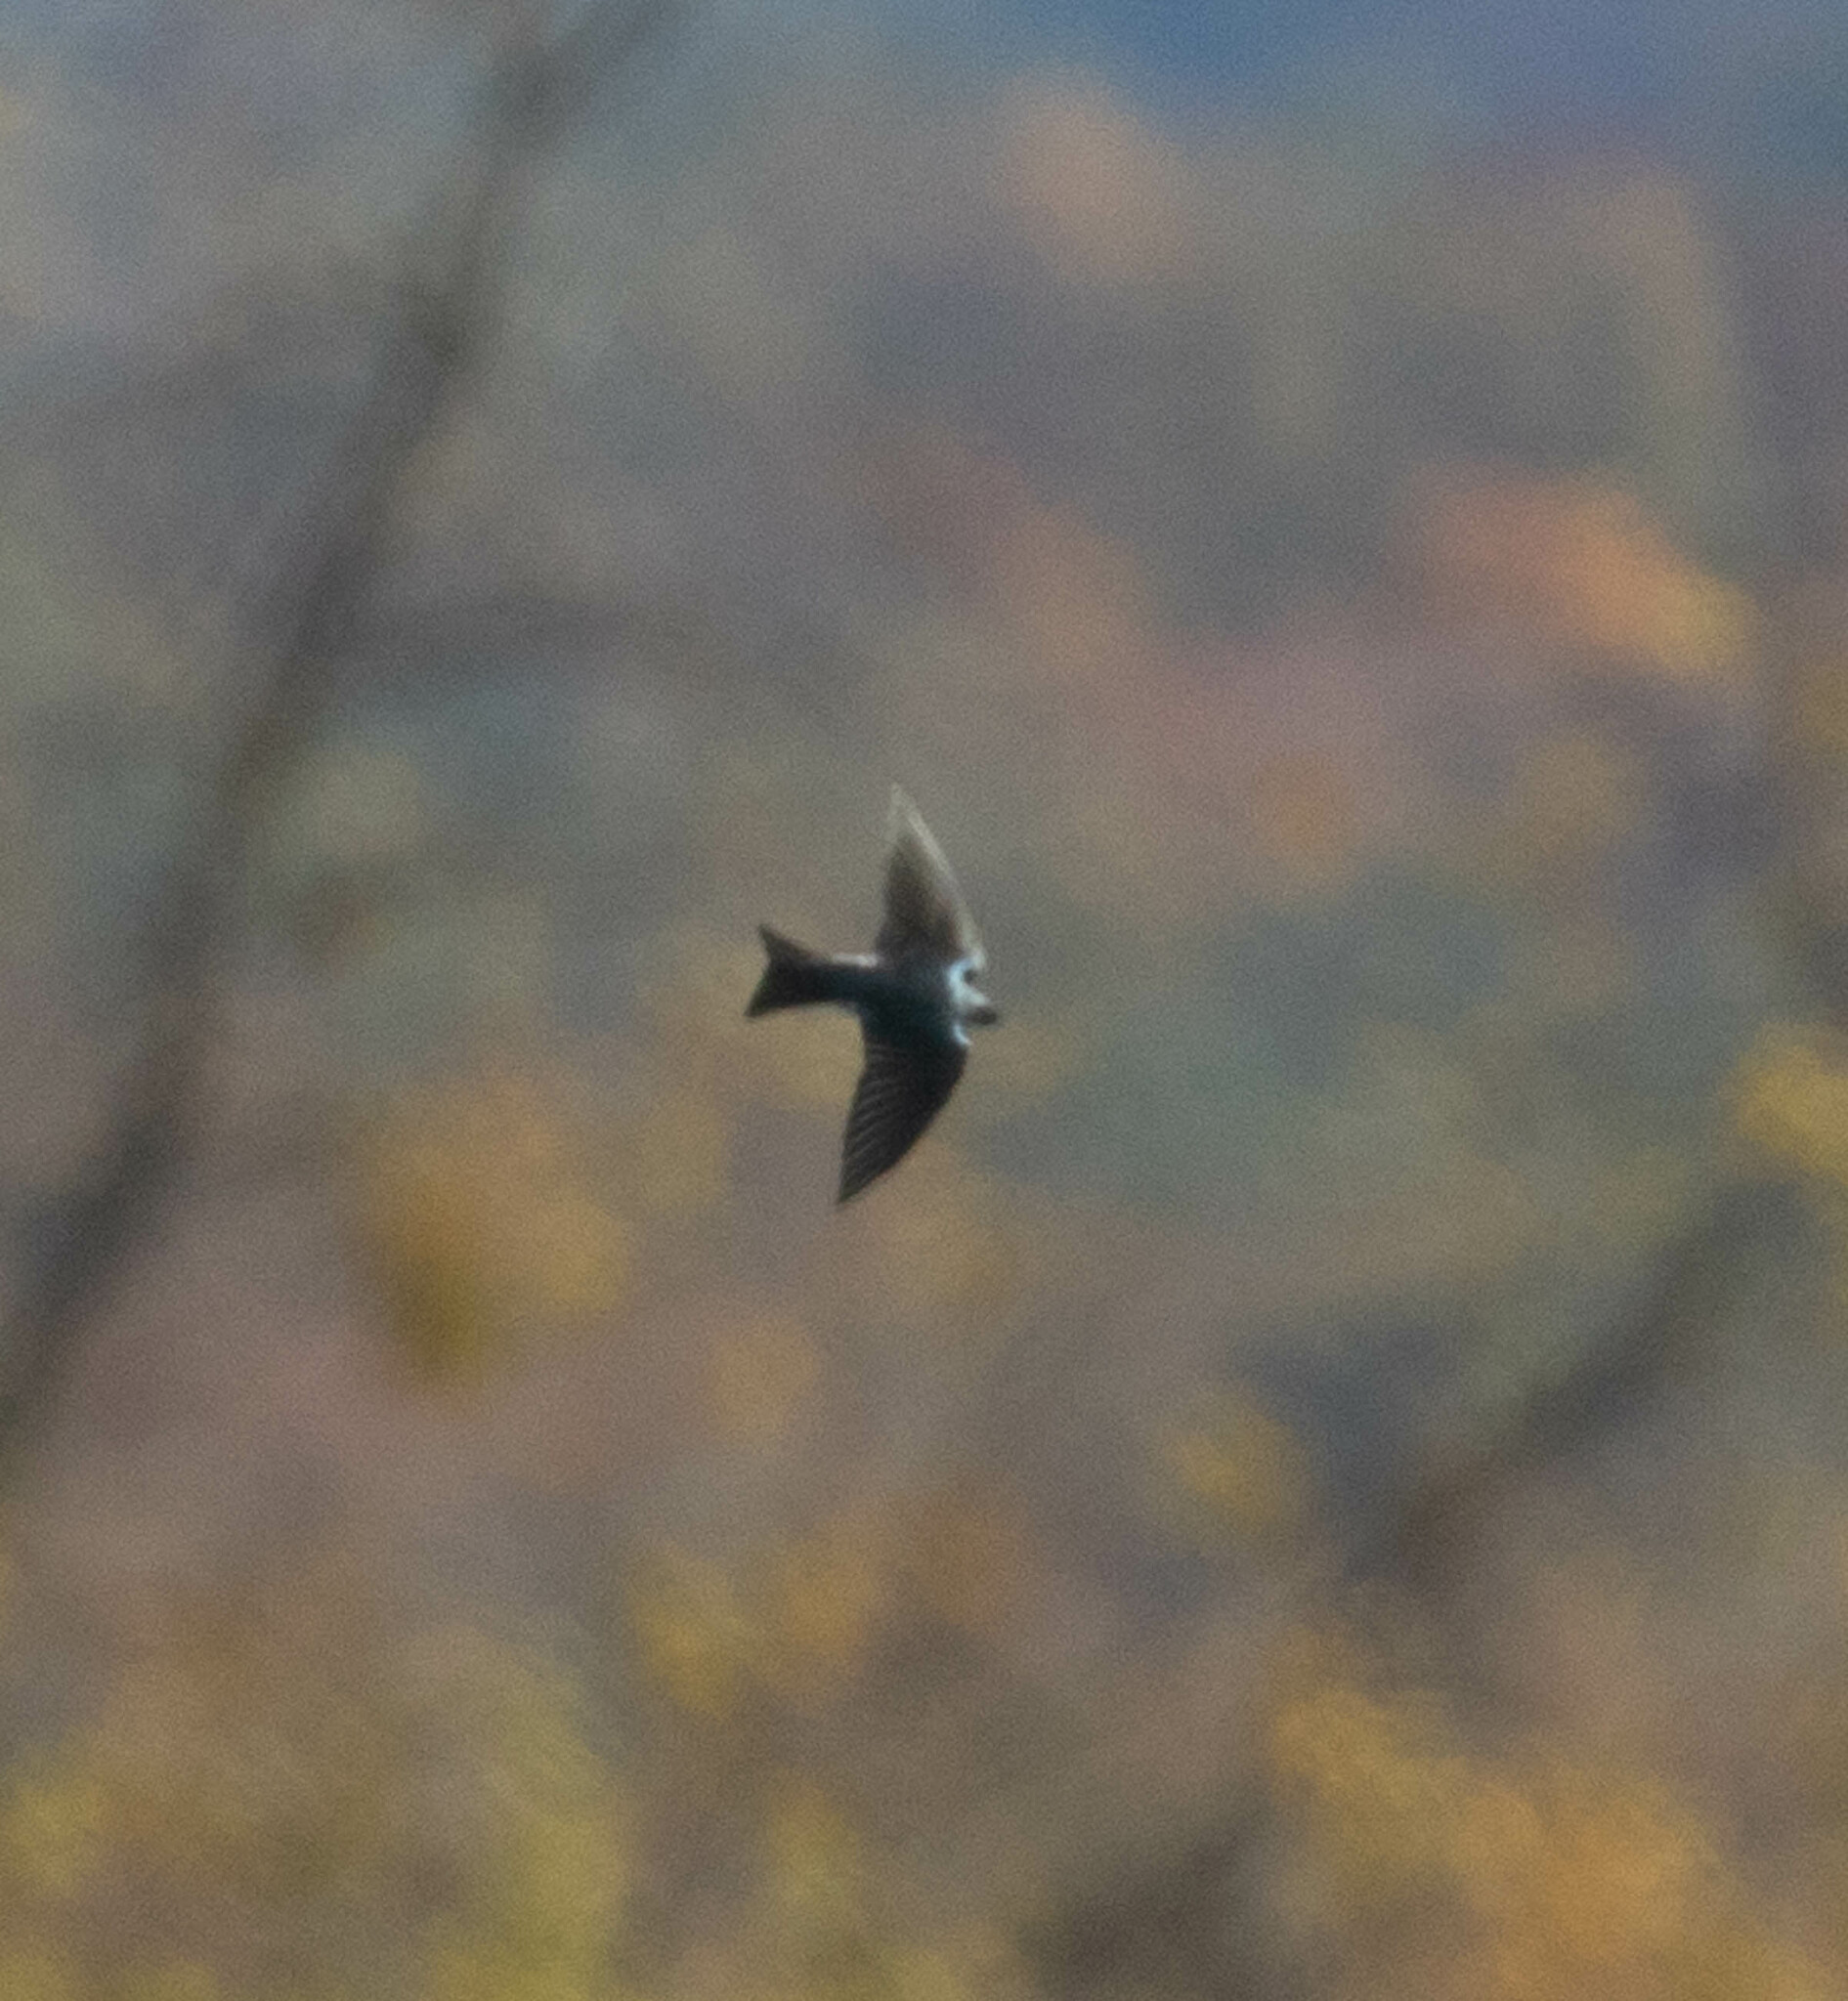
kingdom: Animalia
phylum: Chordata
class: Aves
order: Passeriformes
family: Hirundinidae
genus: Tachycineta
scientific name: Tachycineta bicolor
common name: Tree swallow
